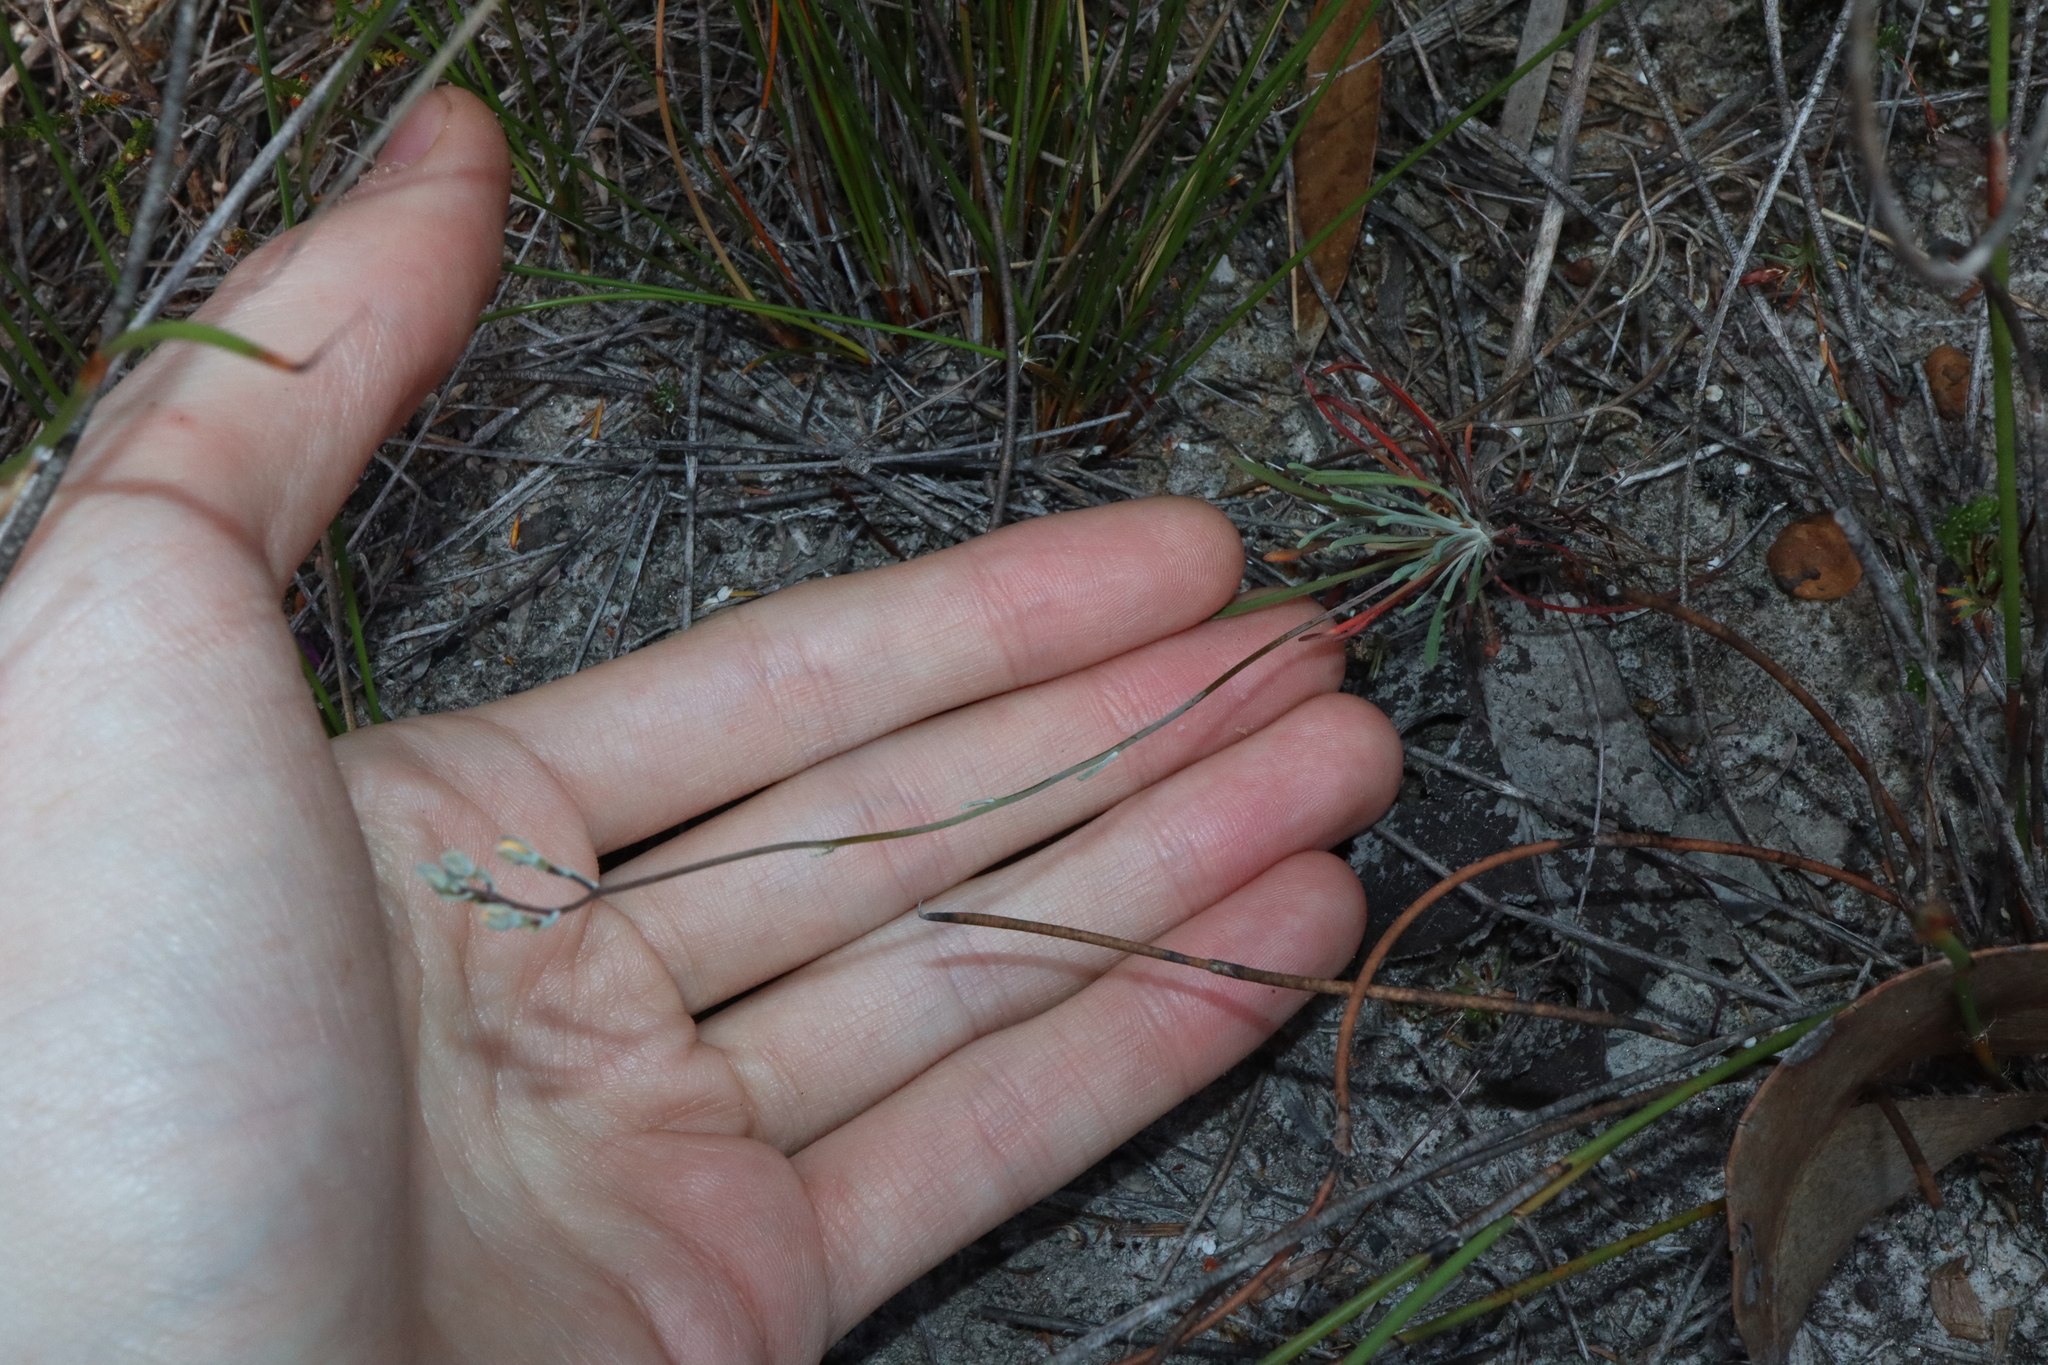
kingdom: Plantae
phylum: Tracheophyta
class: Magnoliopsida
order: Asterales
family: Stylidiaceae
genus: Stylidium
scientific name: Stylidium clavatum
